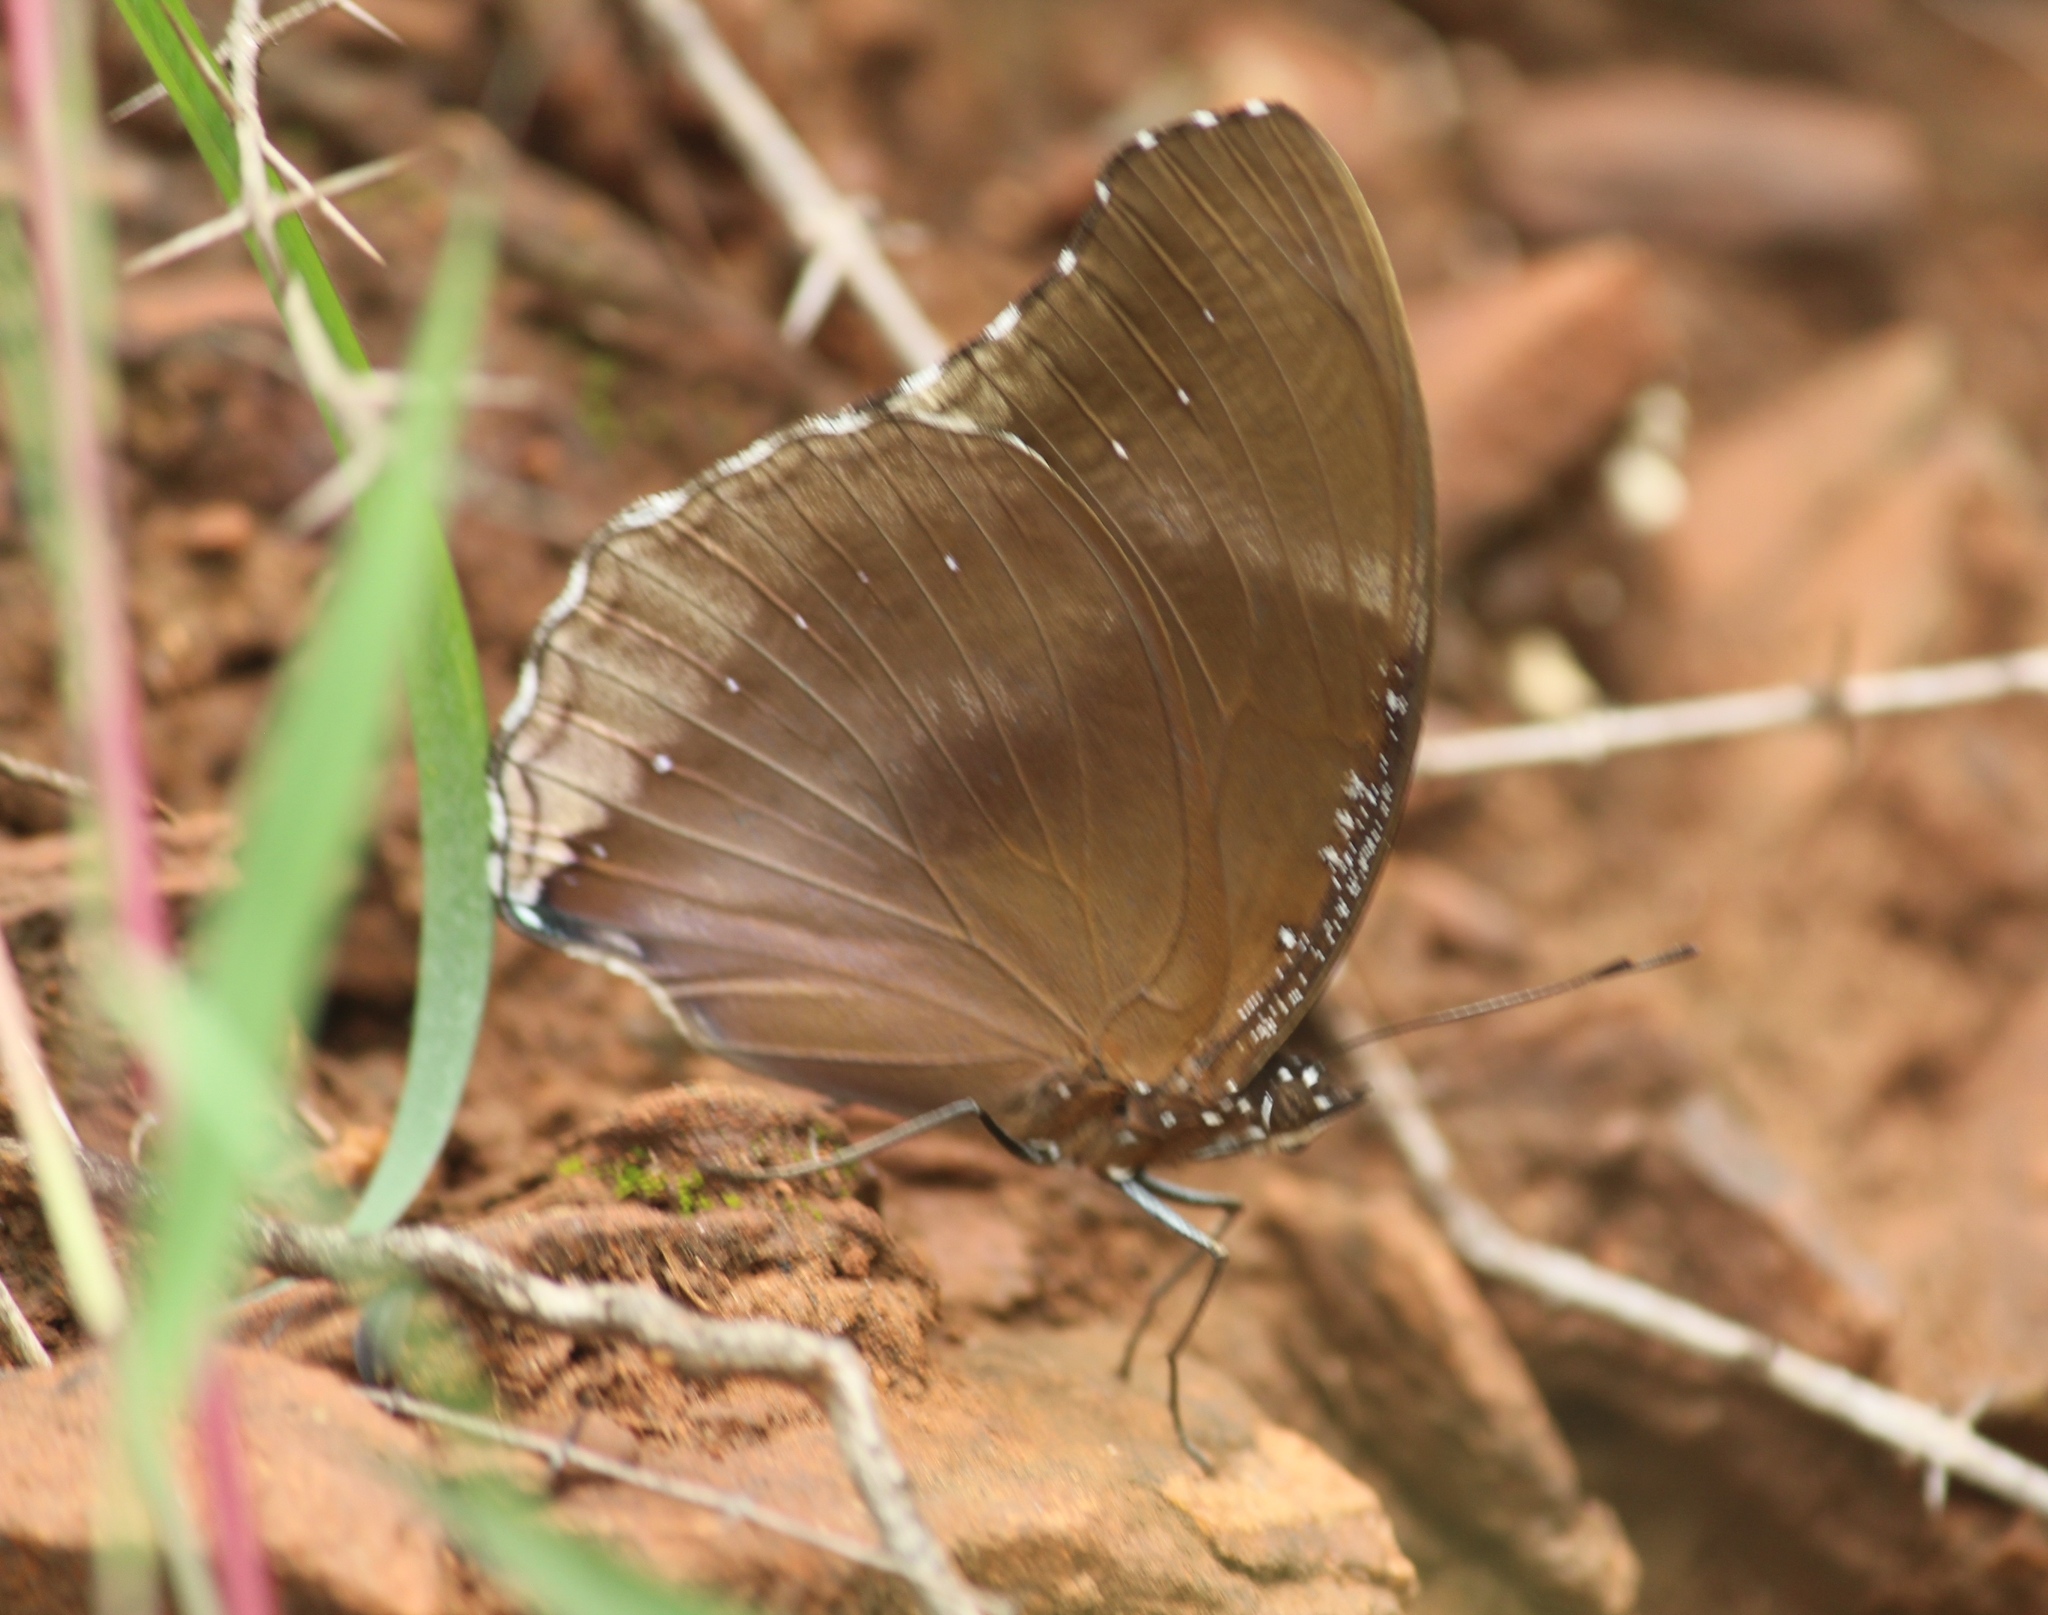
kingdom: Animalia
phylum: Arthropoda
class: Insecta
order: Lepidoptera
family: Nymphalidae
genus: Hypolimnas
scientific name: Hypolimnas bolina
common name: Great eggfly
